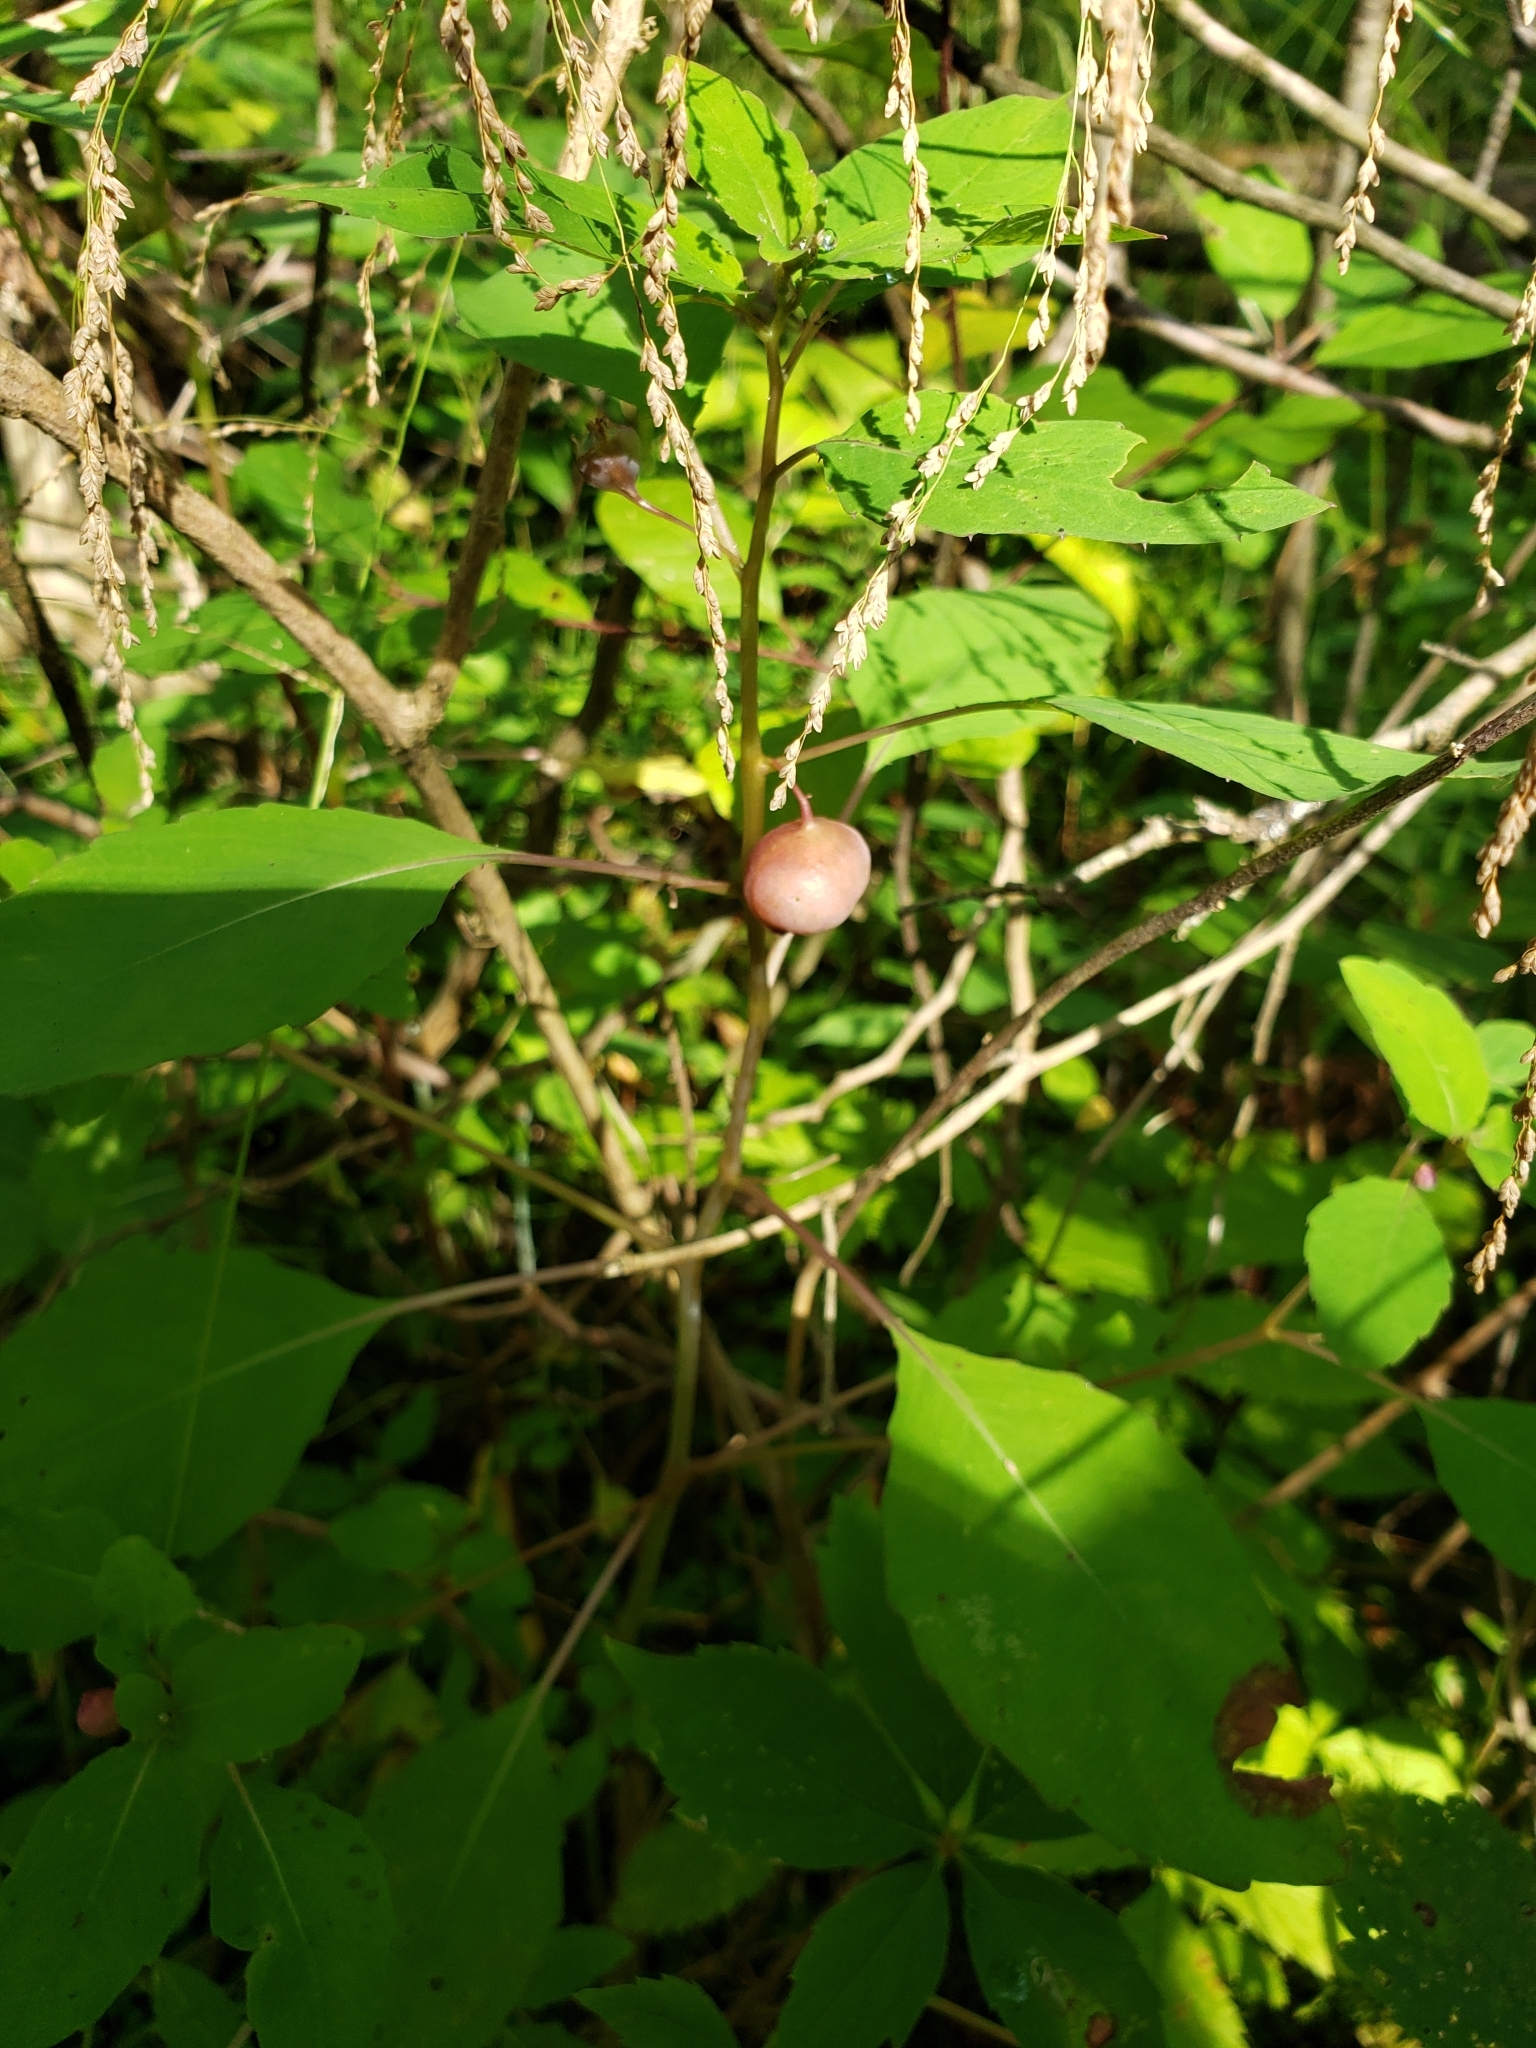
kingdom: Animalia
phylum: Arthropoda
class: Insecta
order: Diptera
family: Cecidomyiidae
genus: Schizomyia
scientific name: Schizomyia impatientis
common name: Jewelweed gall midge
